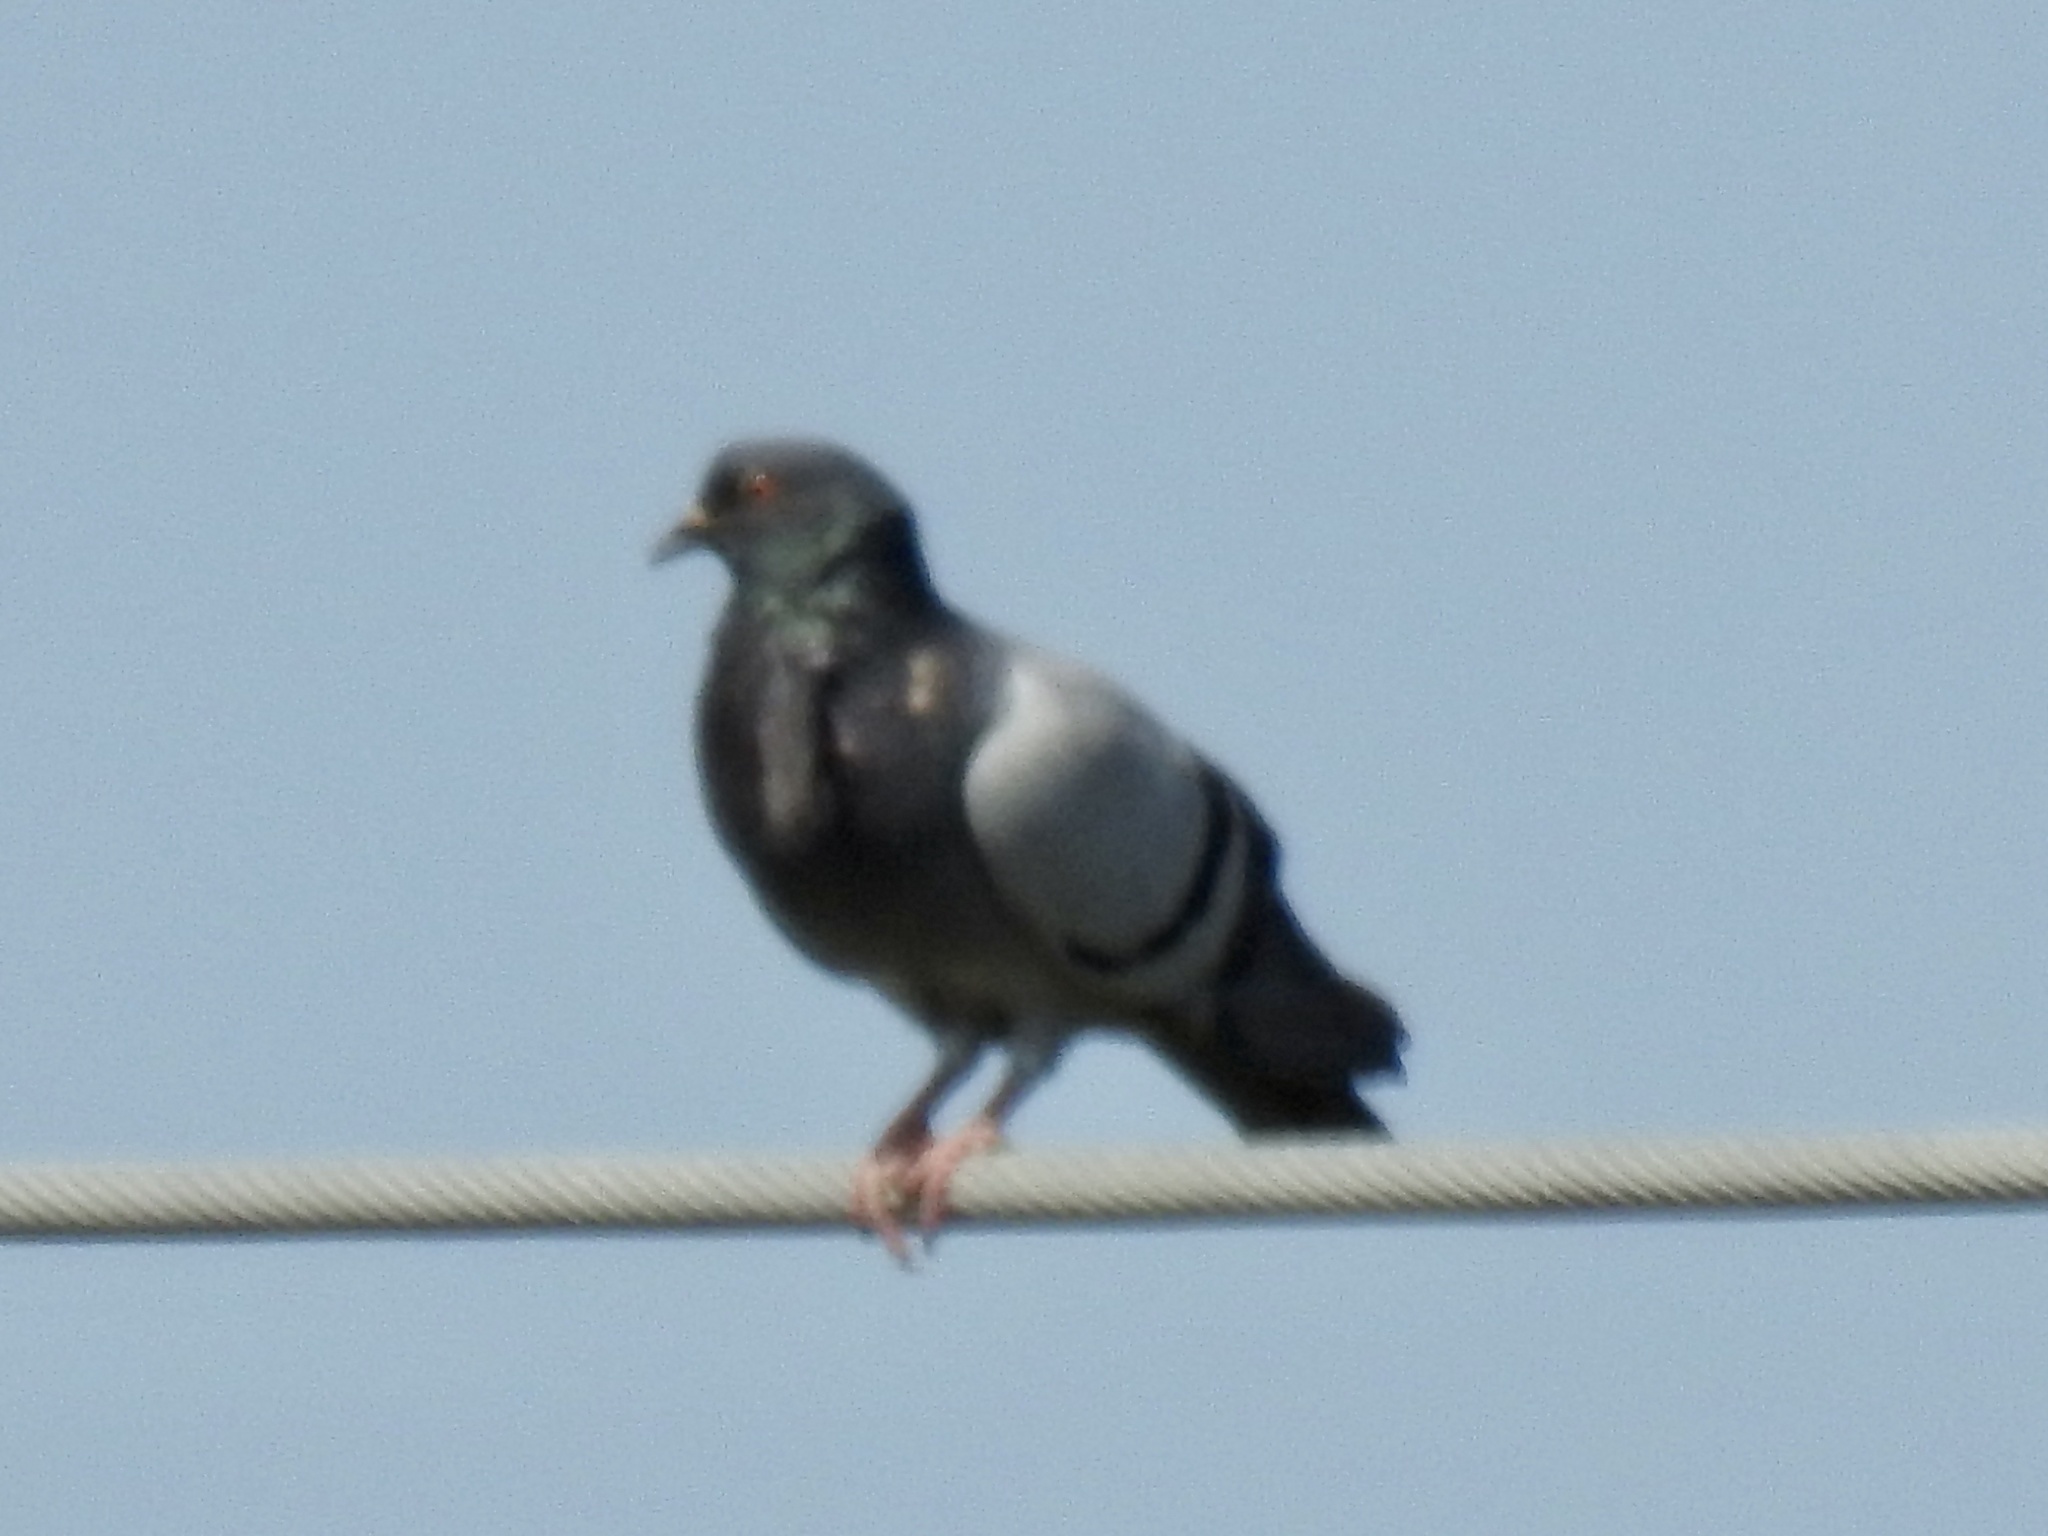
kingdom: Animalia
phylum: Chordata
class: Aves
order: Columbiformes
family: Columbidae
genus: Columba
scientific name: Columba livia
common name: Rock pigeon
